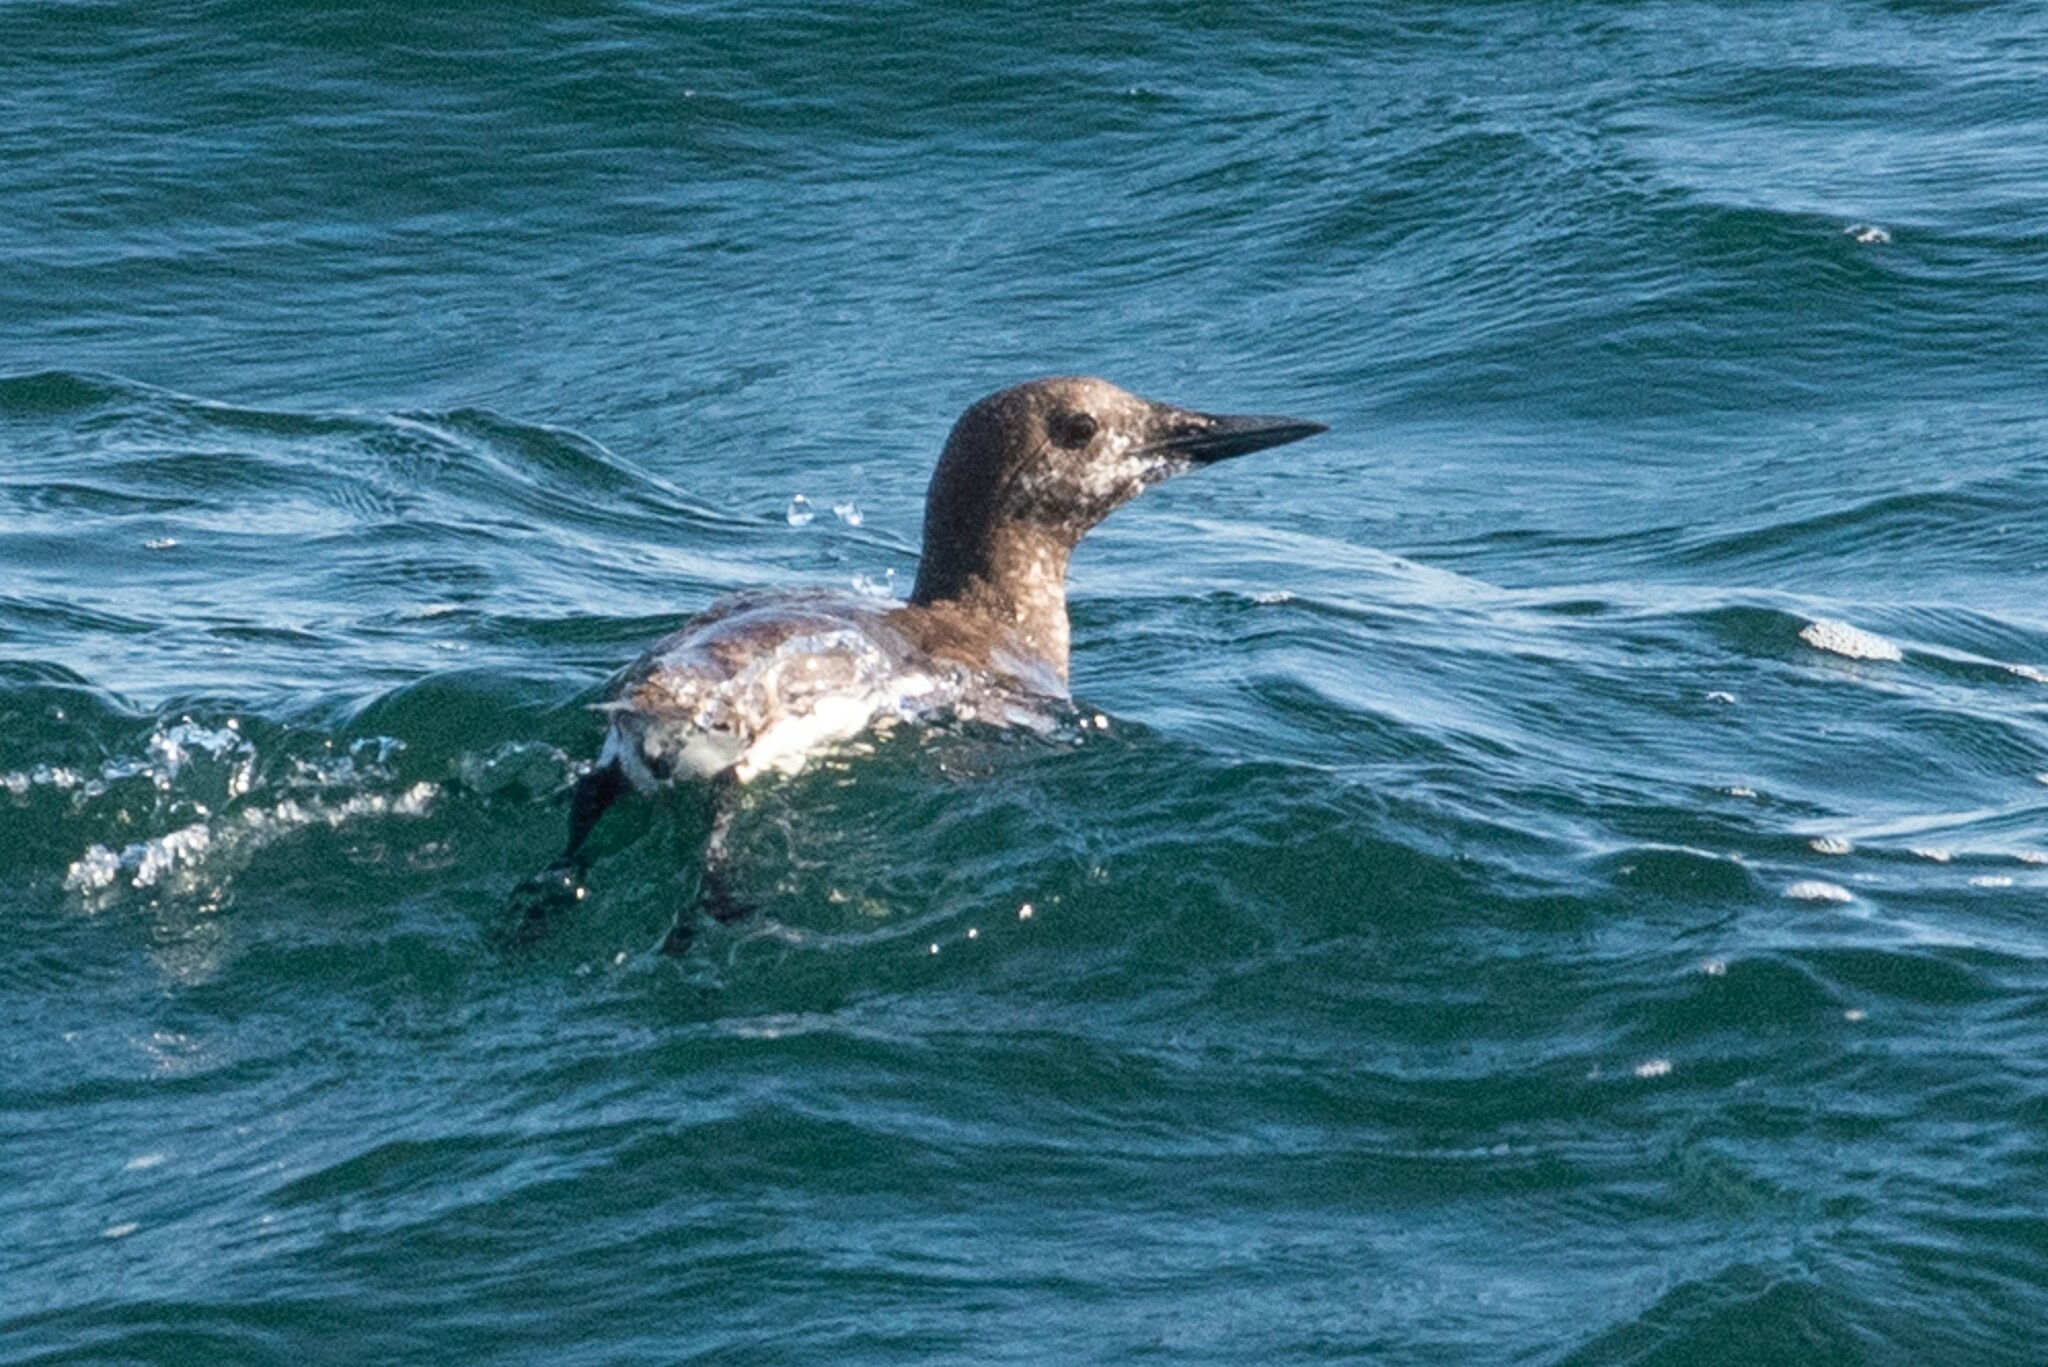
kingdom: Animalia
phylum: Chordata
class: Aves
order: Charadriiformes
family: Alcidae
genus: Uria
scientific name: Uria aalge
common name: Common murre
